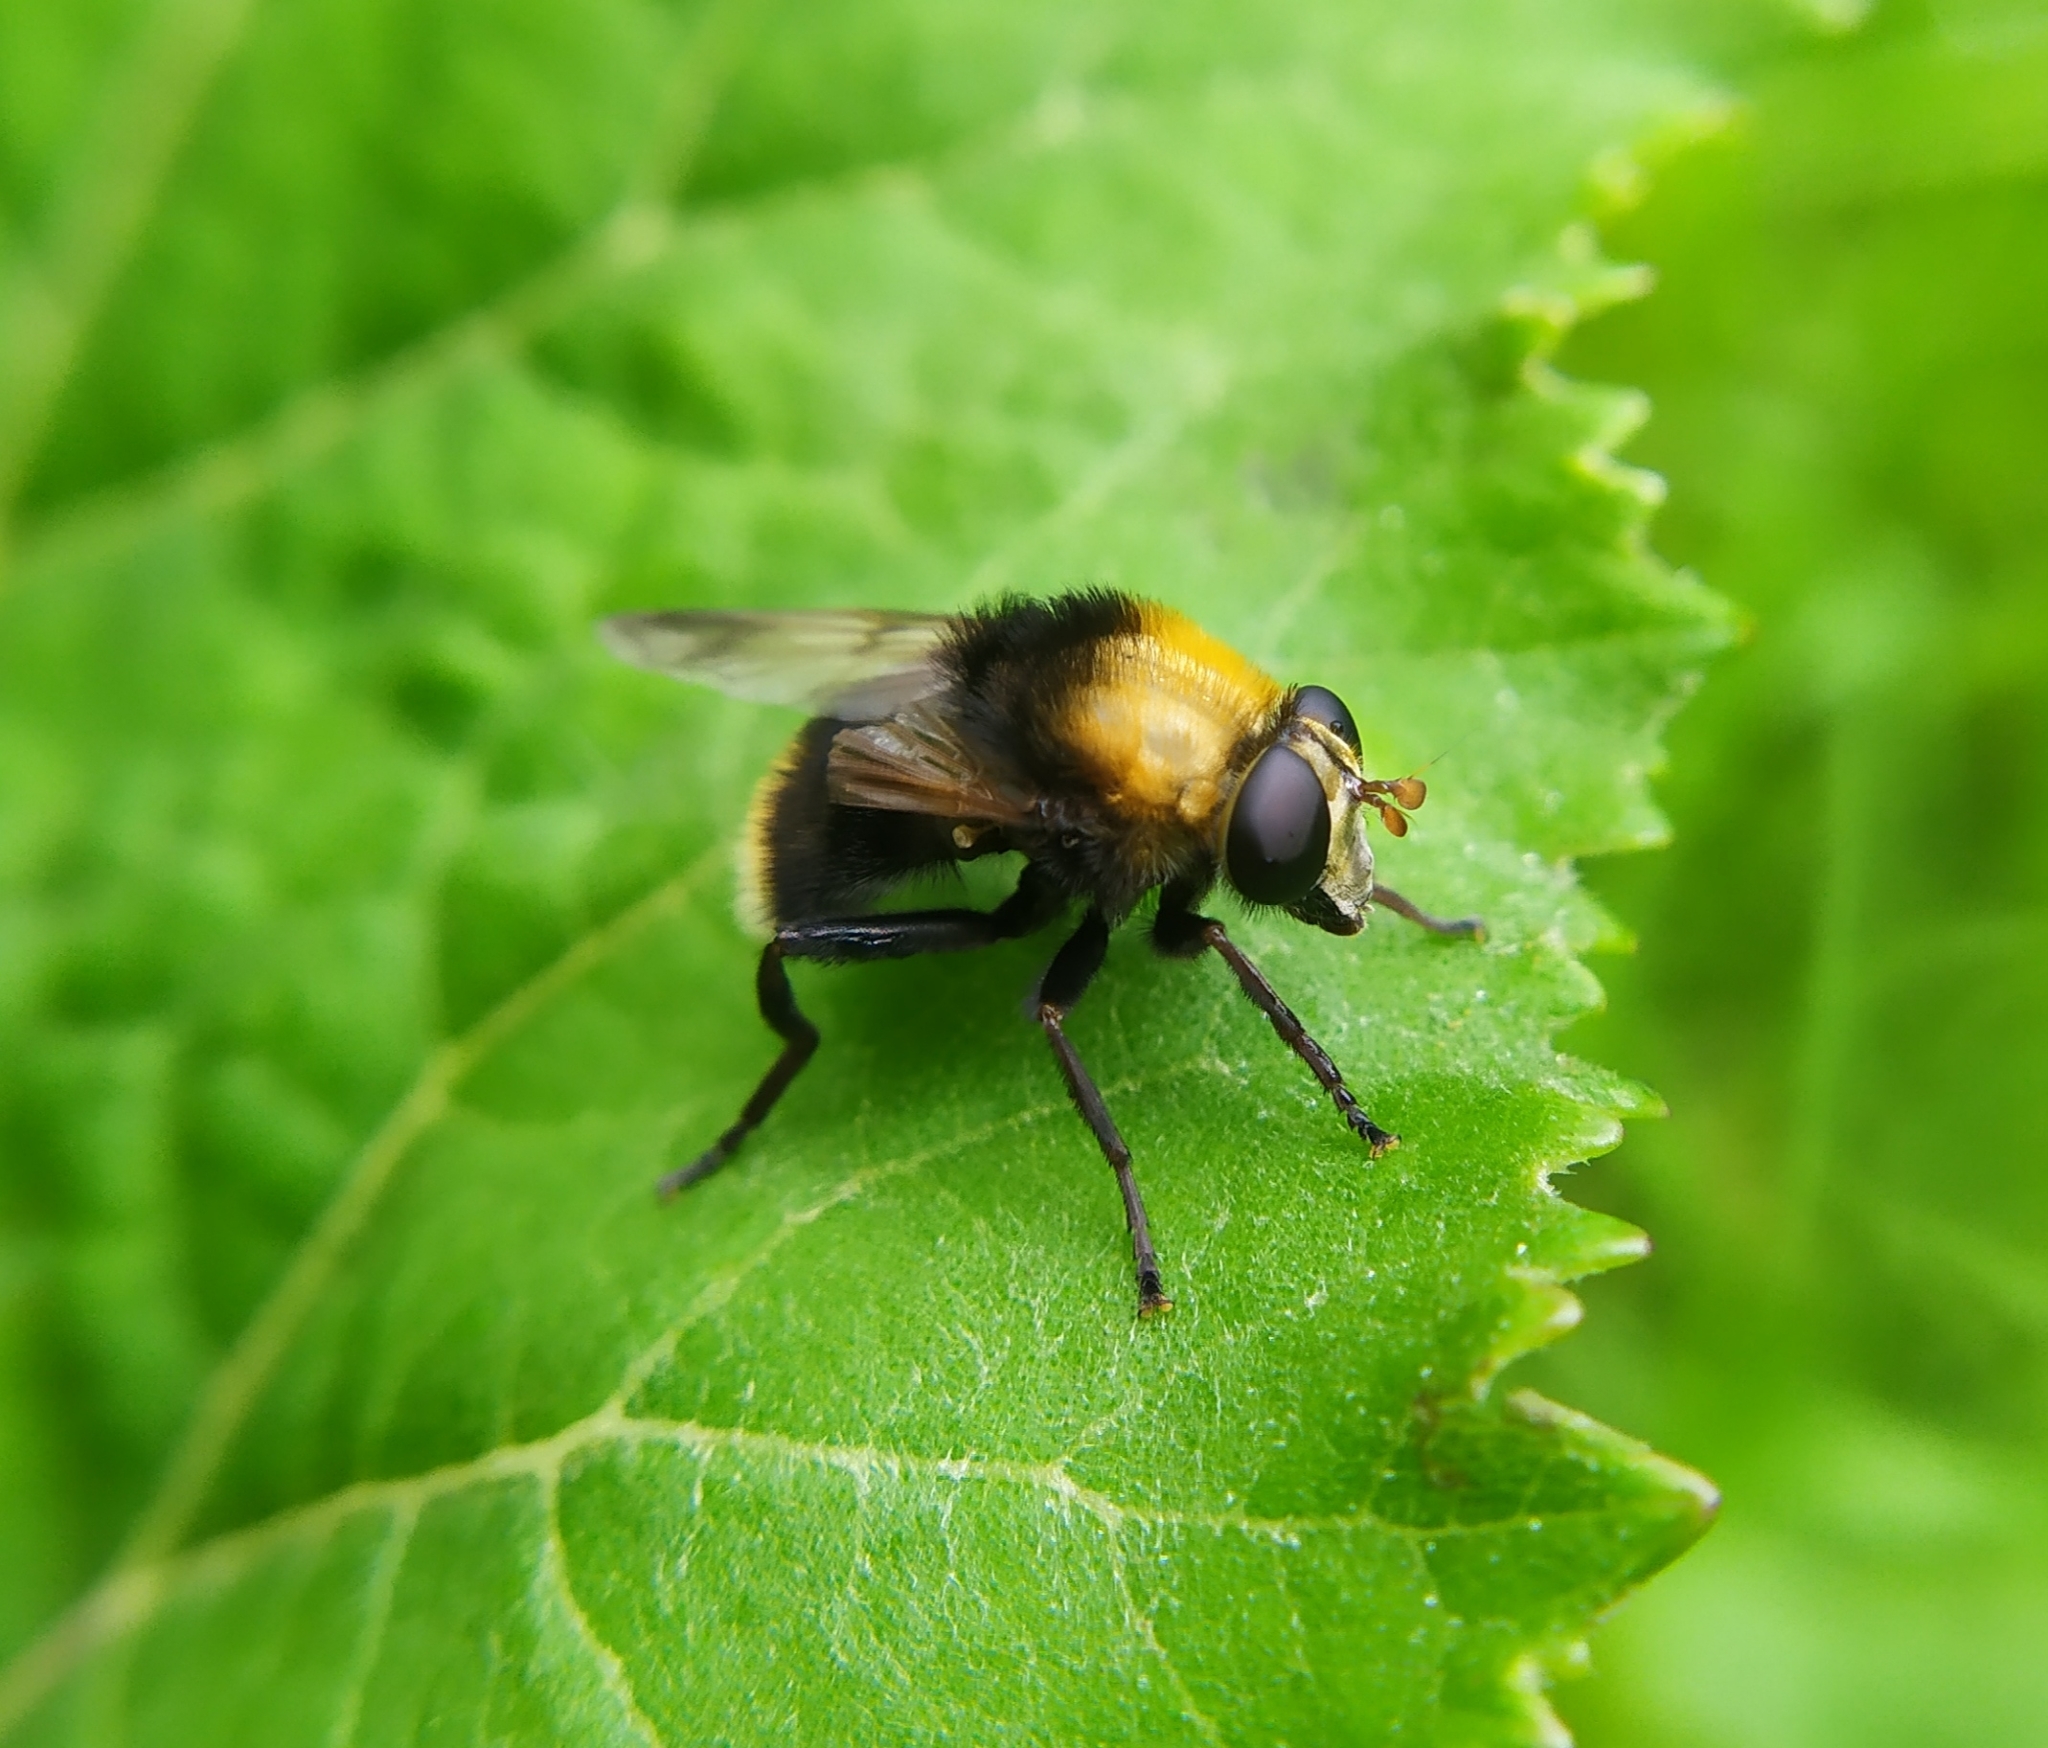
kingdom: Animalia
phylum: Arthropoda
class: Insecta
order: Diptera
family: Syrphidae
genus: Criorhina
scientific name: Criorhina berberina
